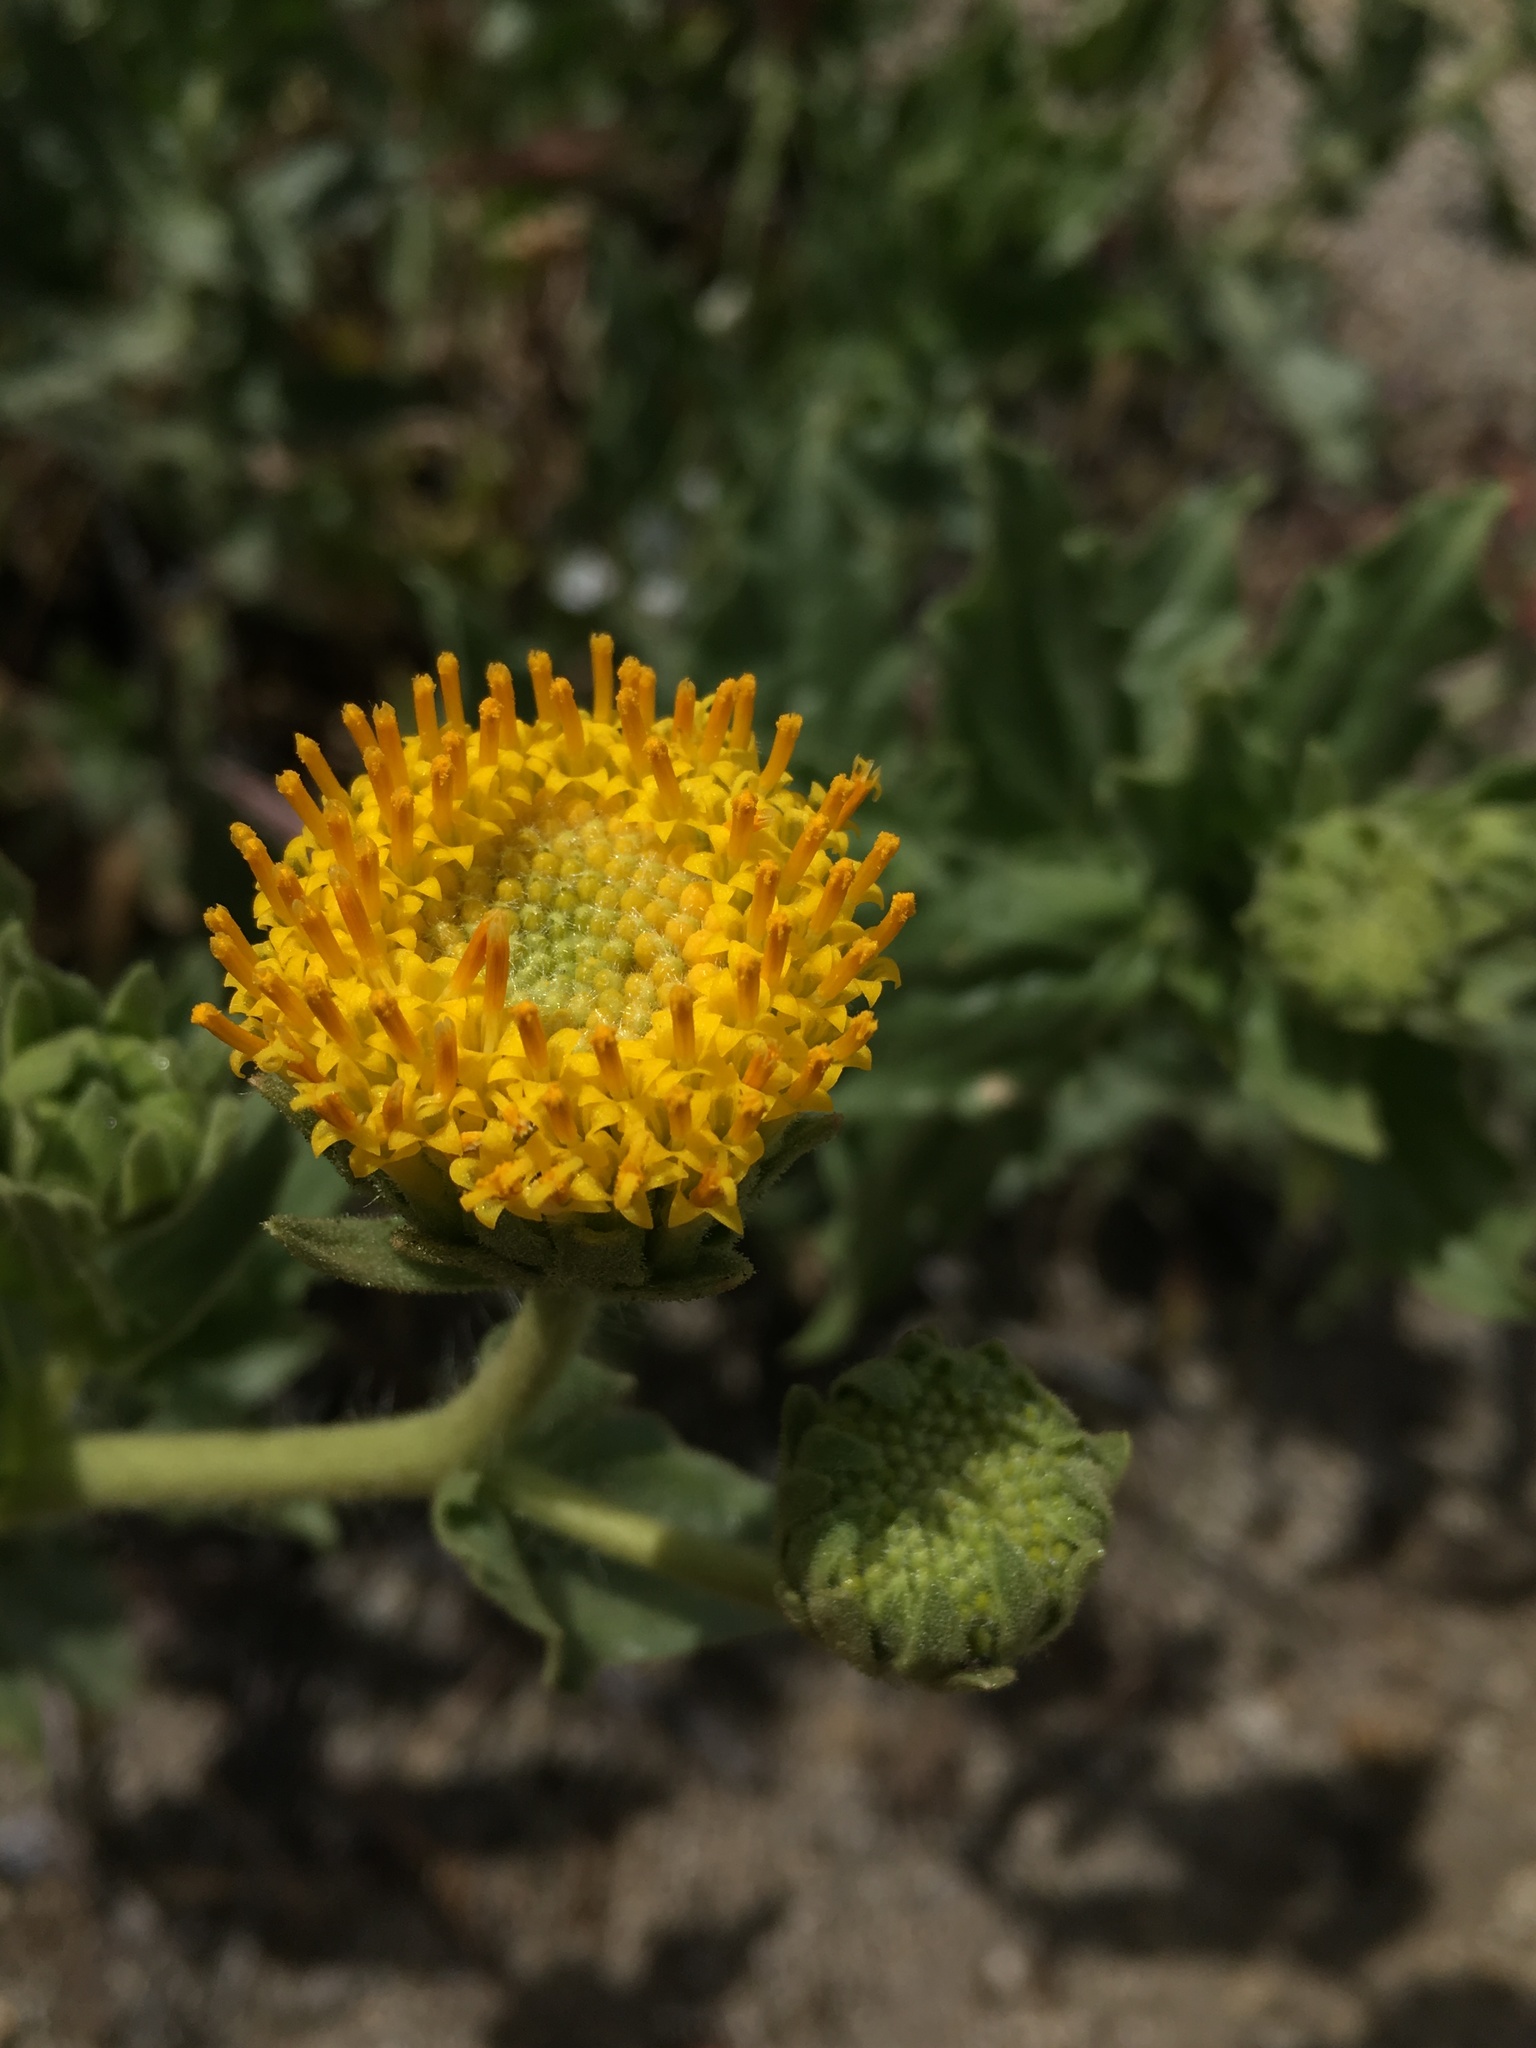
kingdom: Plantae
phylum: Tracheophyta
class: Magnoliopsida
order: Asterales
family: Asteraceae
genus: Geraea
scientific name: Geraea viscida
